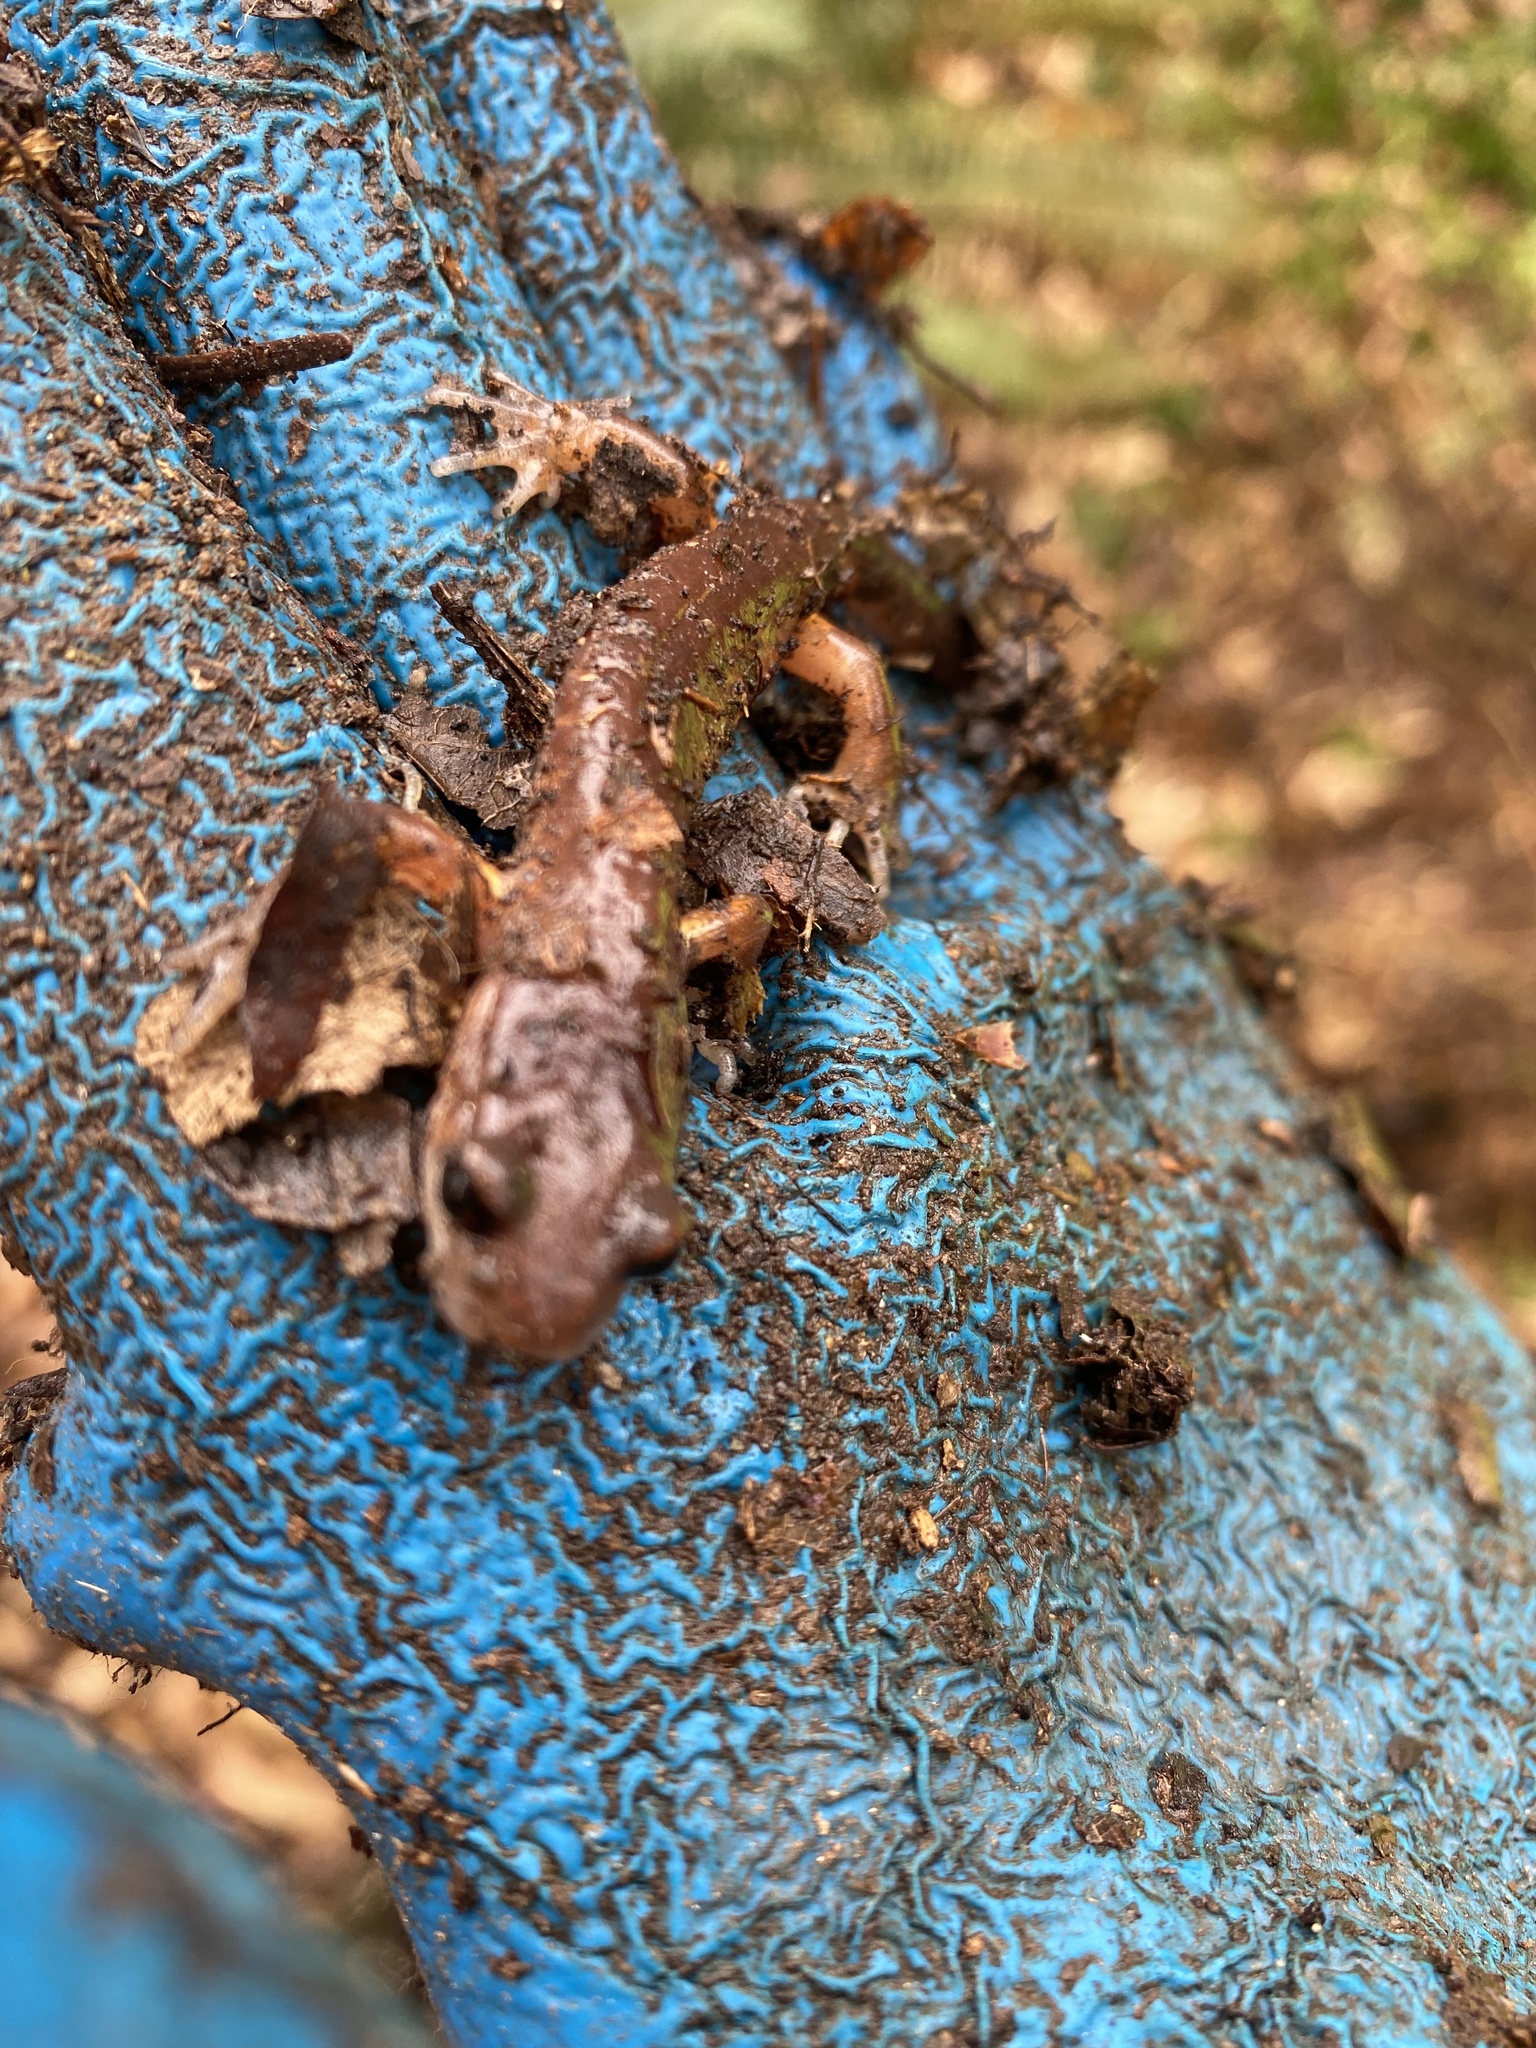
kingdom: Animalia
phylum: Chordata
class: Amphibia
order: Caudata
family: Plethodontidae
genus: Ensatina
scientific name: Ensatina eschscholtzii
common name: Ensatina
